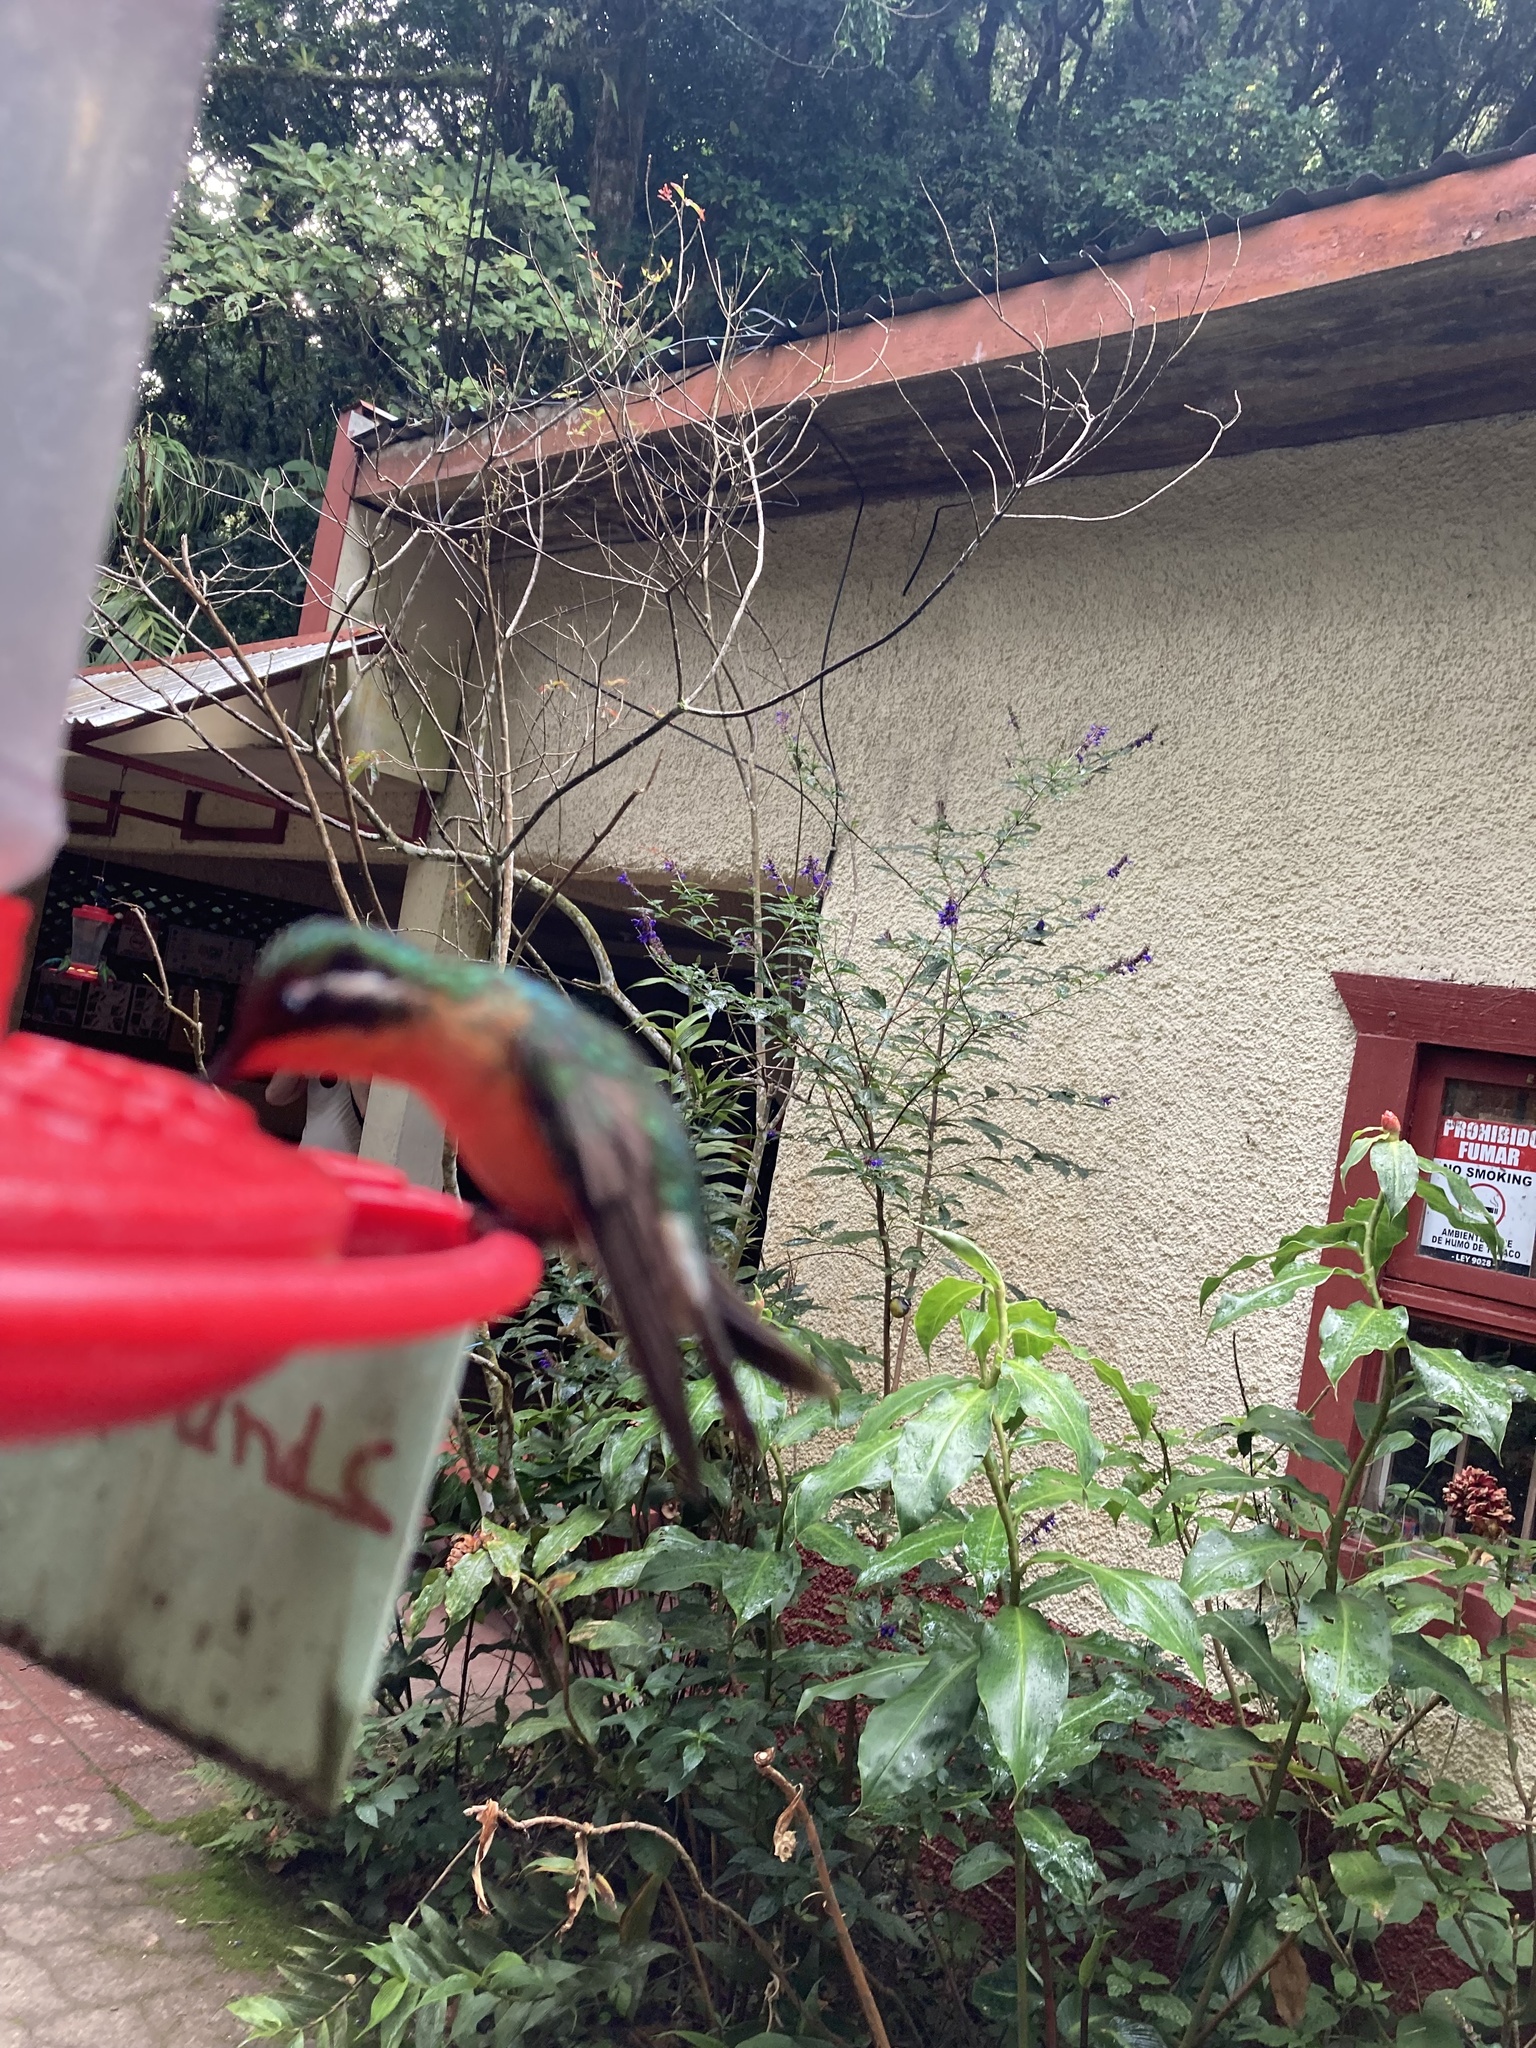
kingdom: Animalia
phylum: Chordata
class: Aves
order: Apodiformes
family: Trochilidae
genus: Lampornis
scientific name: Lampornis calolaemus
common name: Purple-throated mountain-gem
